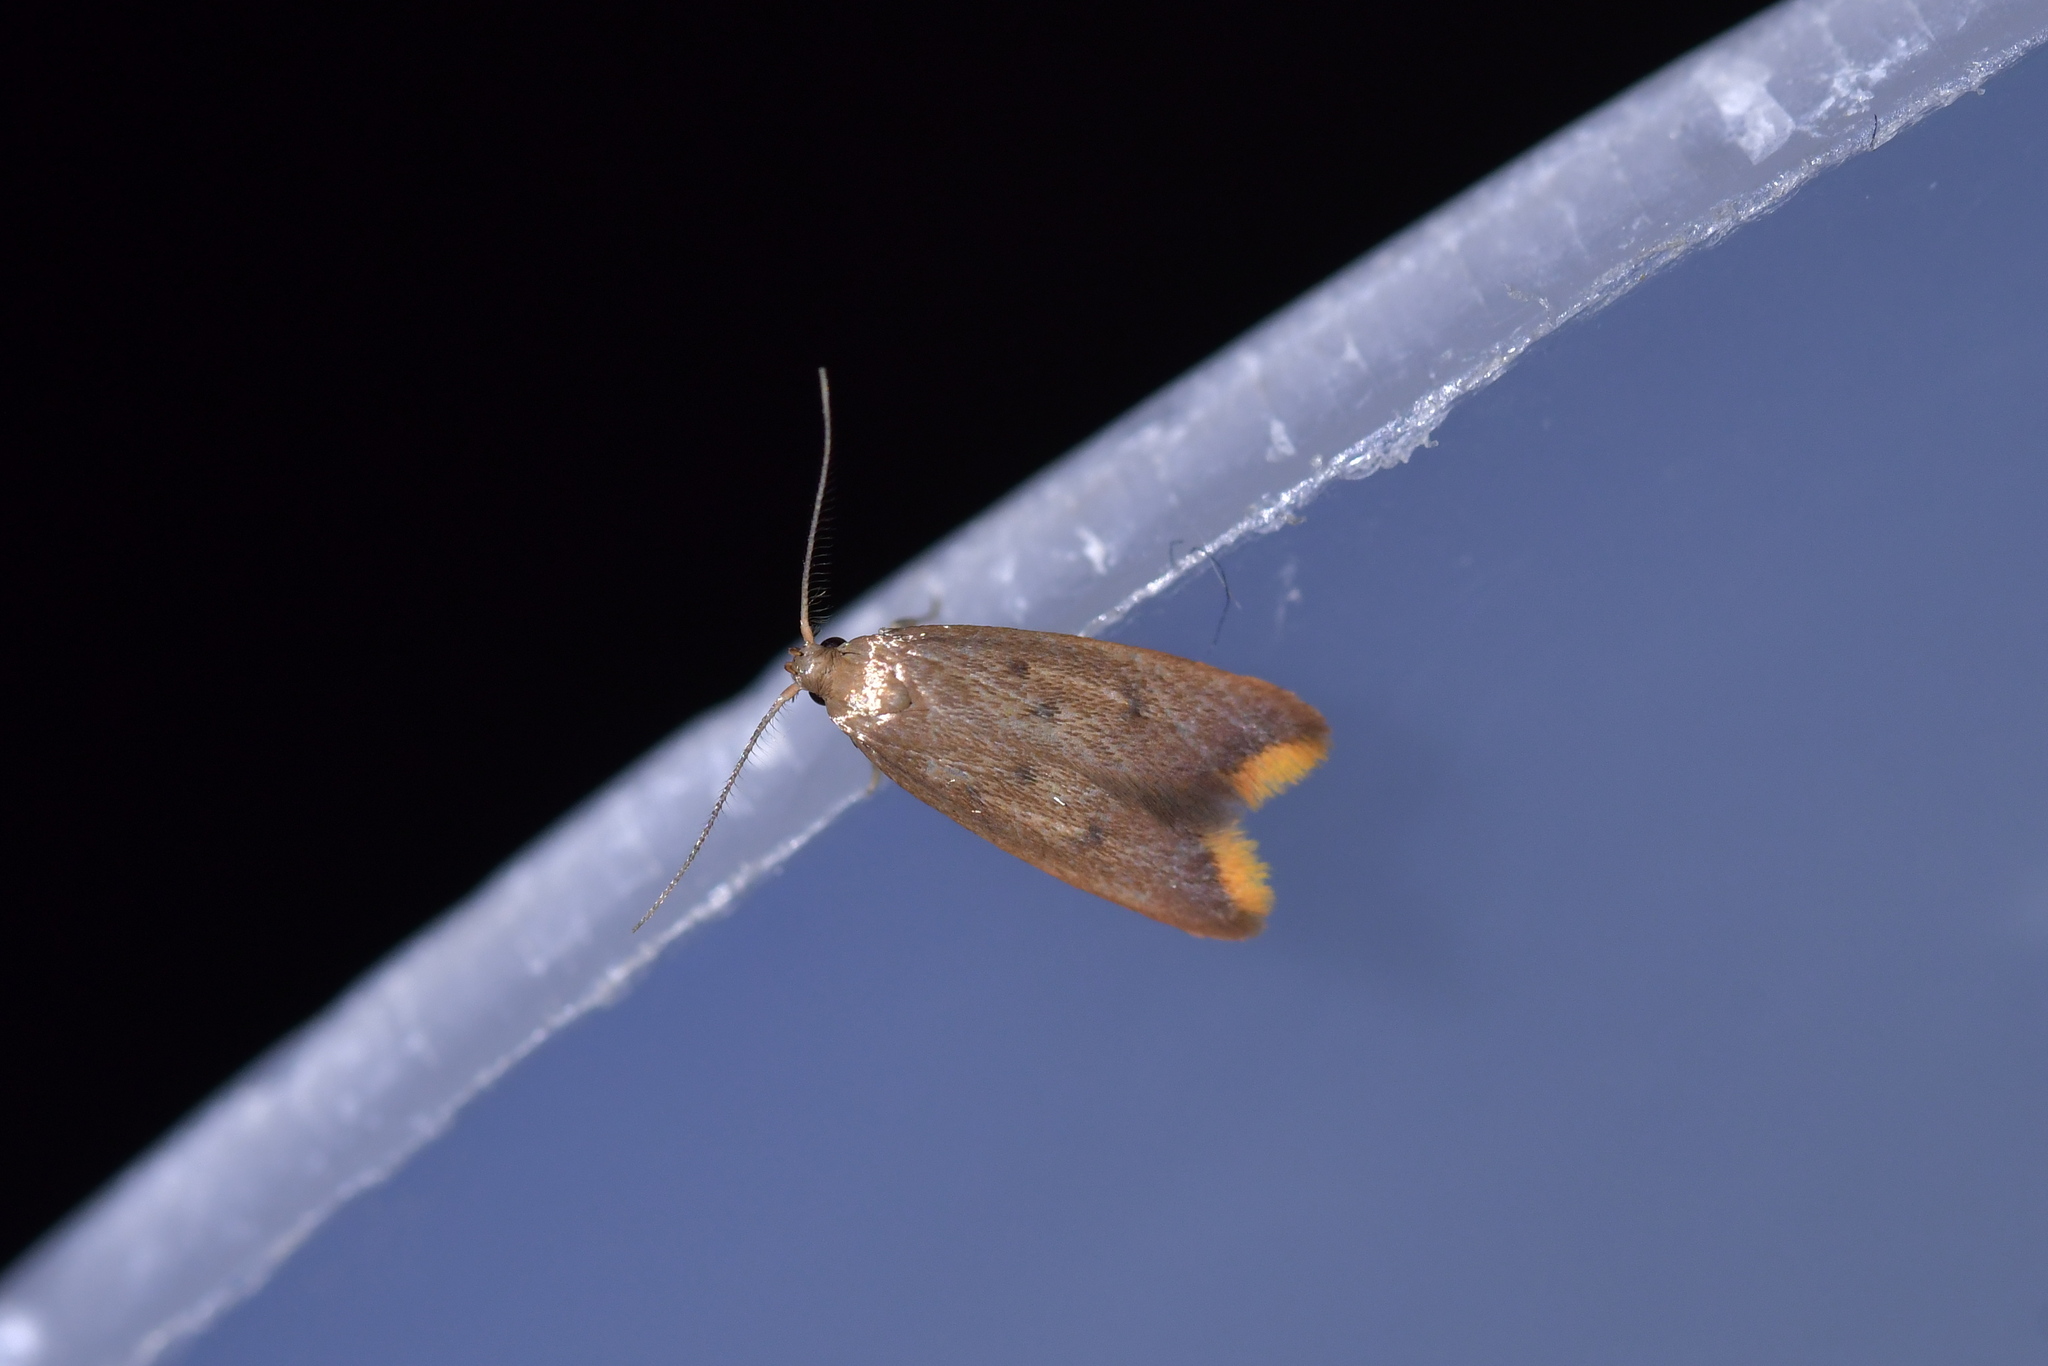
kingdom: Animalia
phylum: Arthropoda
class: Insecta
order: Lepidoptera
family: Oecophoridae
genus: Tachystola
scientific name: Tachystola acroxantha
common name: Ruddy streak
